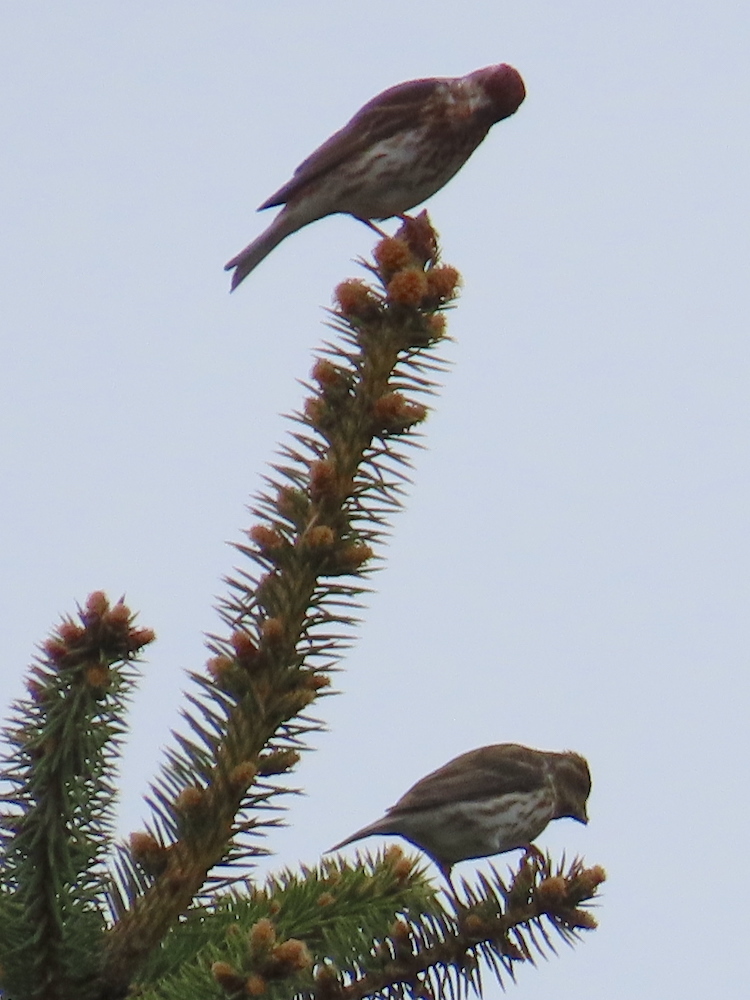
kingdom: Animalia
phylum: Chordata
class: Aves
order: Passeriformes
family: Fringillidae
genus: Haemorhous
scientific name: Haemorhous purpureus
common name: Purple finch
